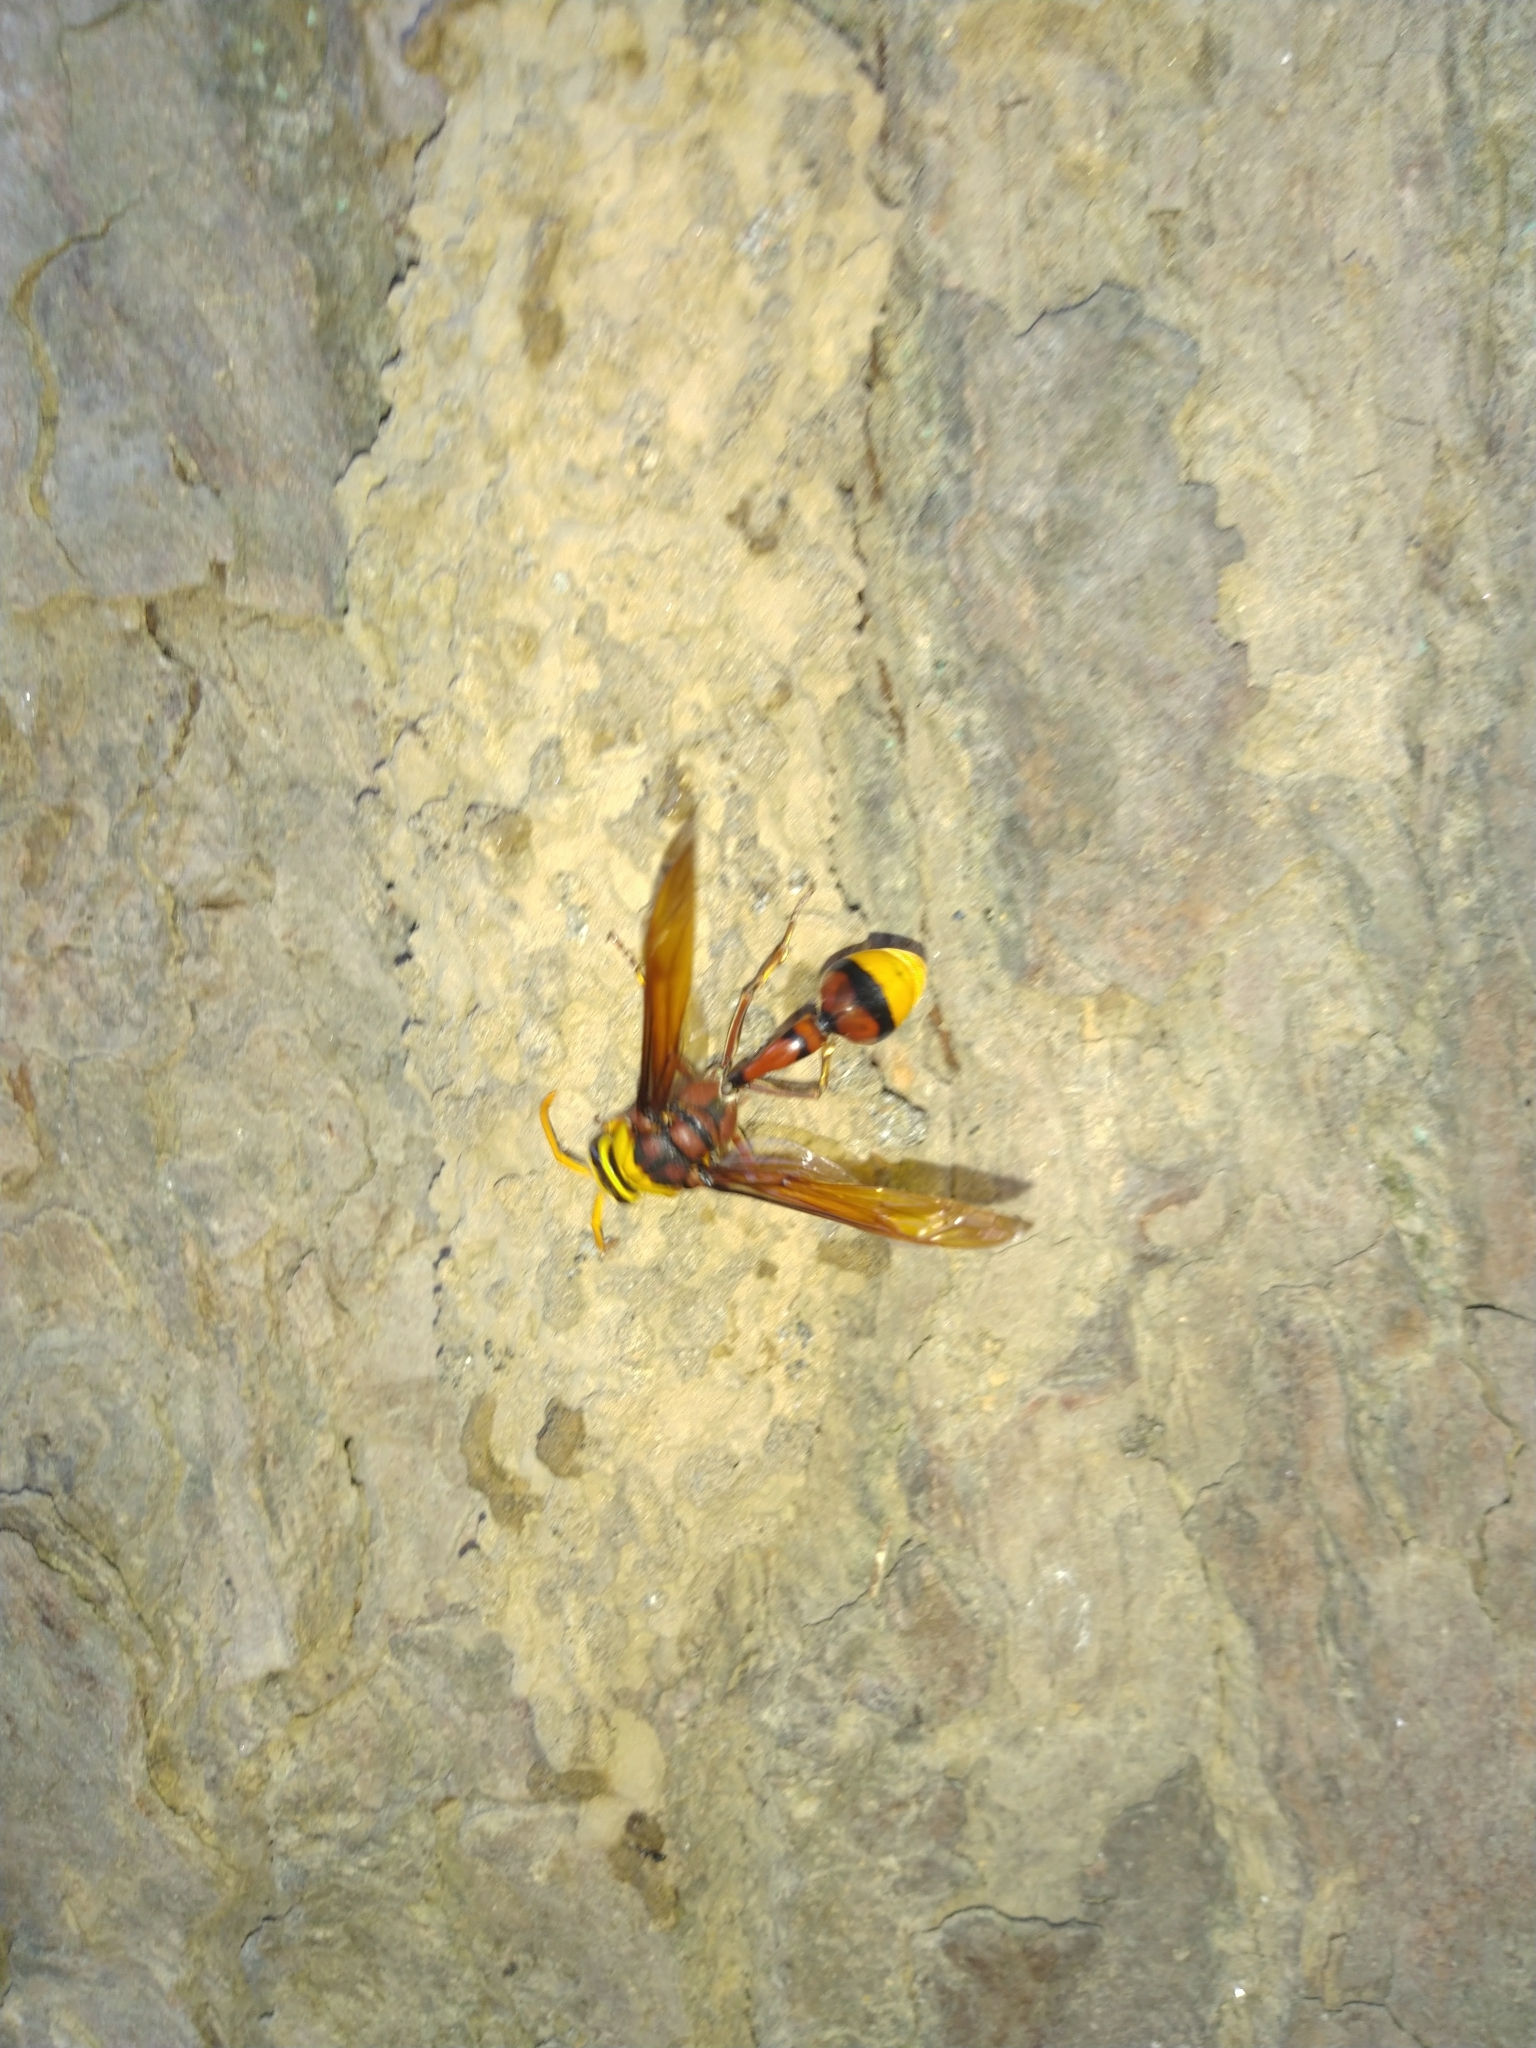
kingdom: Animalia
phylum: Arthropoda
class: Insecta
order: Hymenoptera
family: Eumenidae
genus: Delta
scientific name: Delta pyriforme
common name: Wasp
